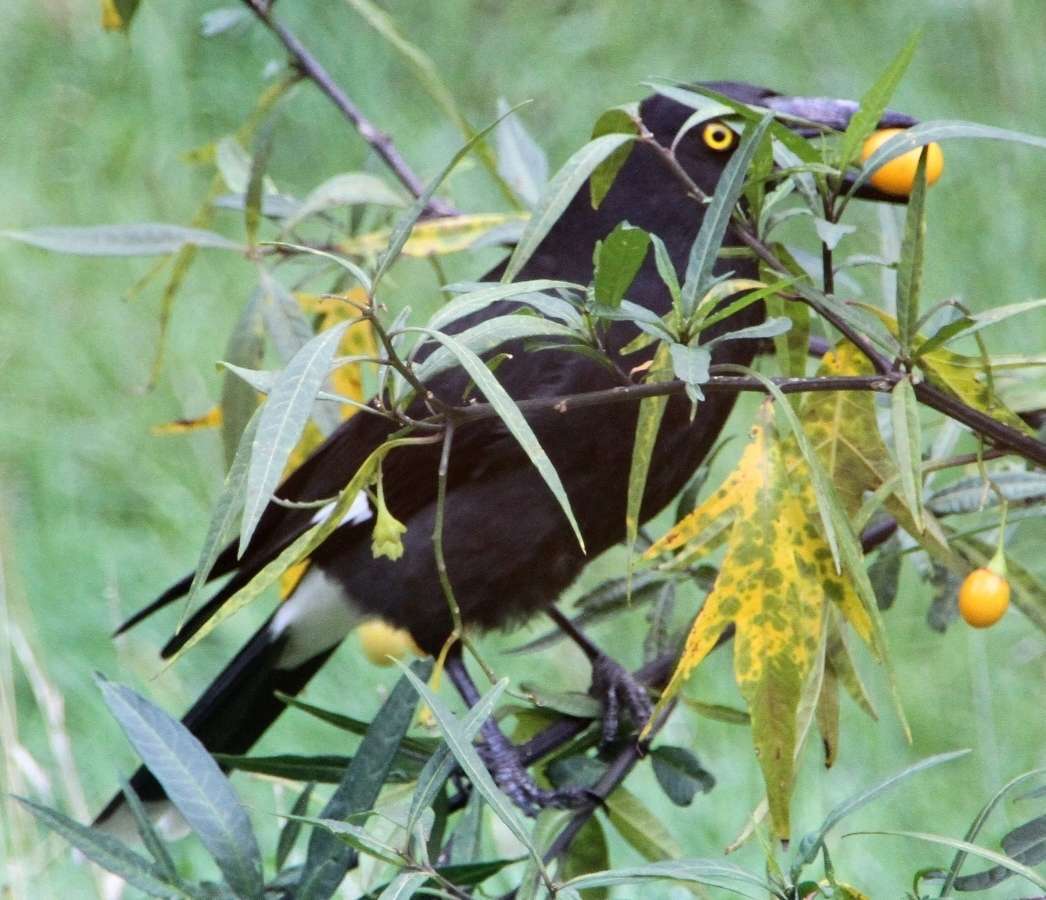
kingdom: Animalia
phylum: Chordata
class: Aves
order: Passeriformes
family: Cracticidae
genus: Strepera
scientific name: Strepera graculina
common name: Pied currawong
